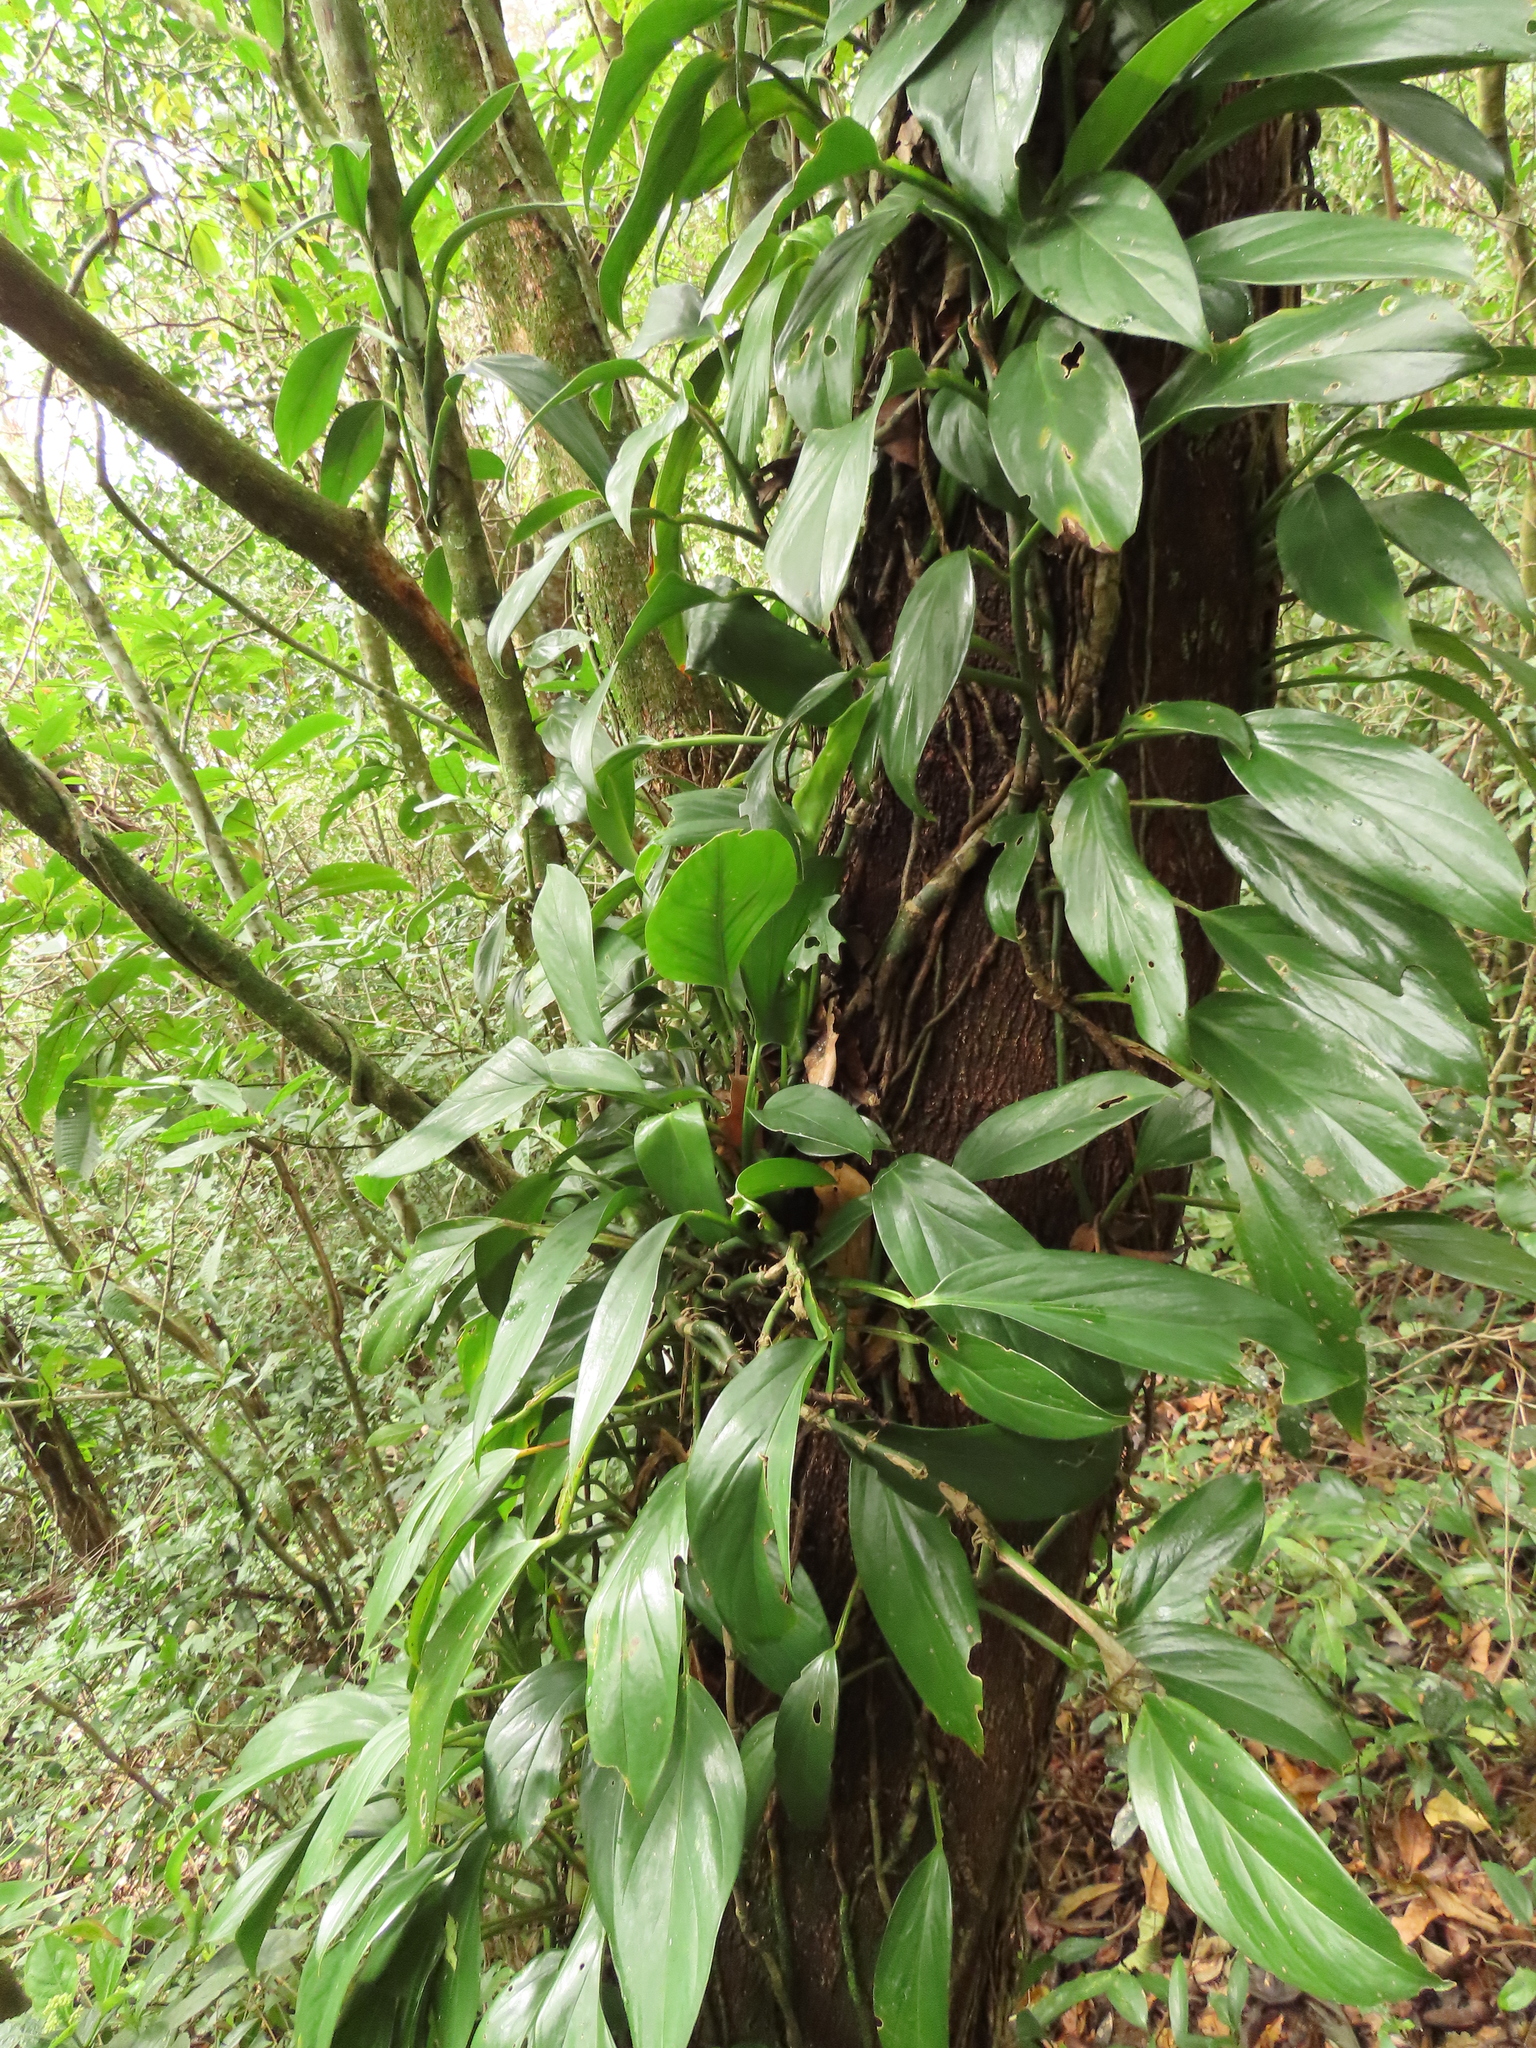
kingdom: Plantae
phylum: Tracheophyta
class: Liliopsida
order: Alismatales
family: Araceae
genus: Monstera
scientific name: Monstera adansonii
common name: Tarovine
